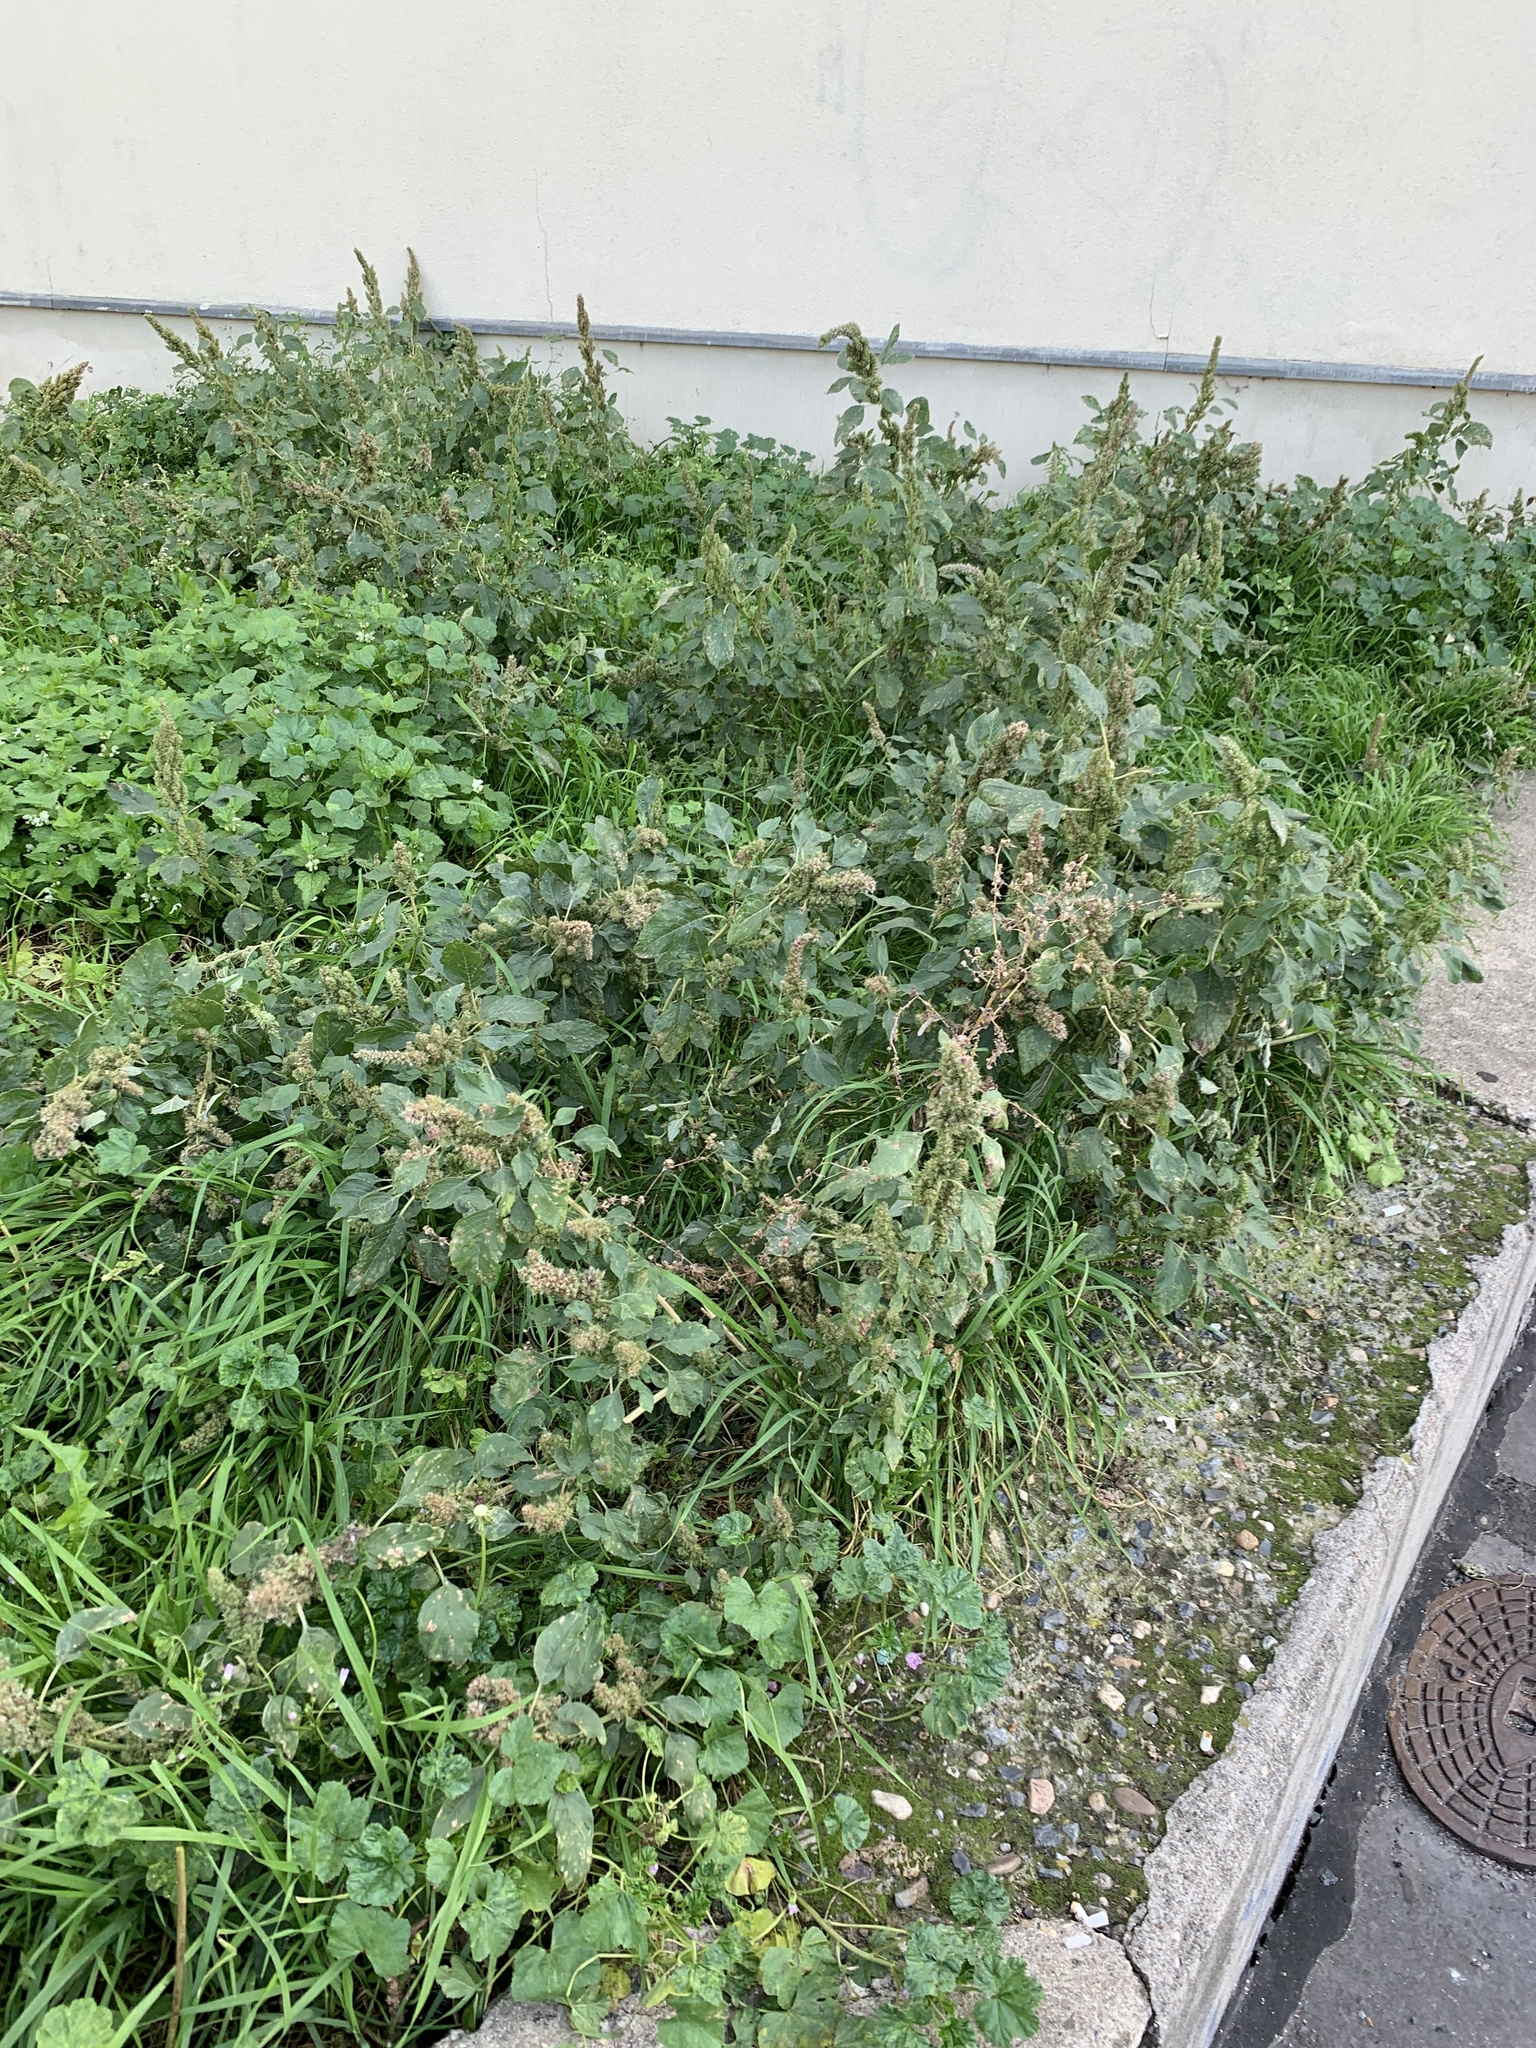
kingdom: Plantae
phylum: Tracheophyta
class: Magnoliopsida
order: Caryophyllales
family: Amaranthaceae
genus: Amaranthus
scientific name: Amaranthus retroflexus
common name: Redroot amaranth
